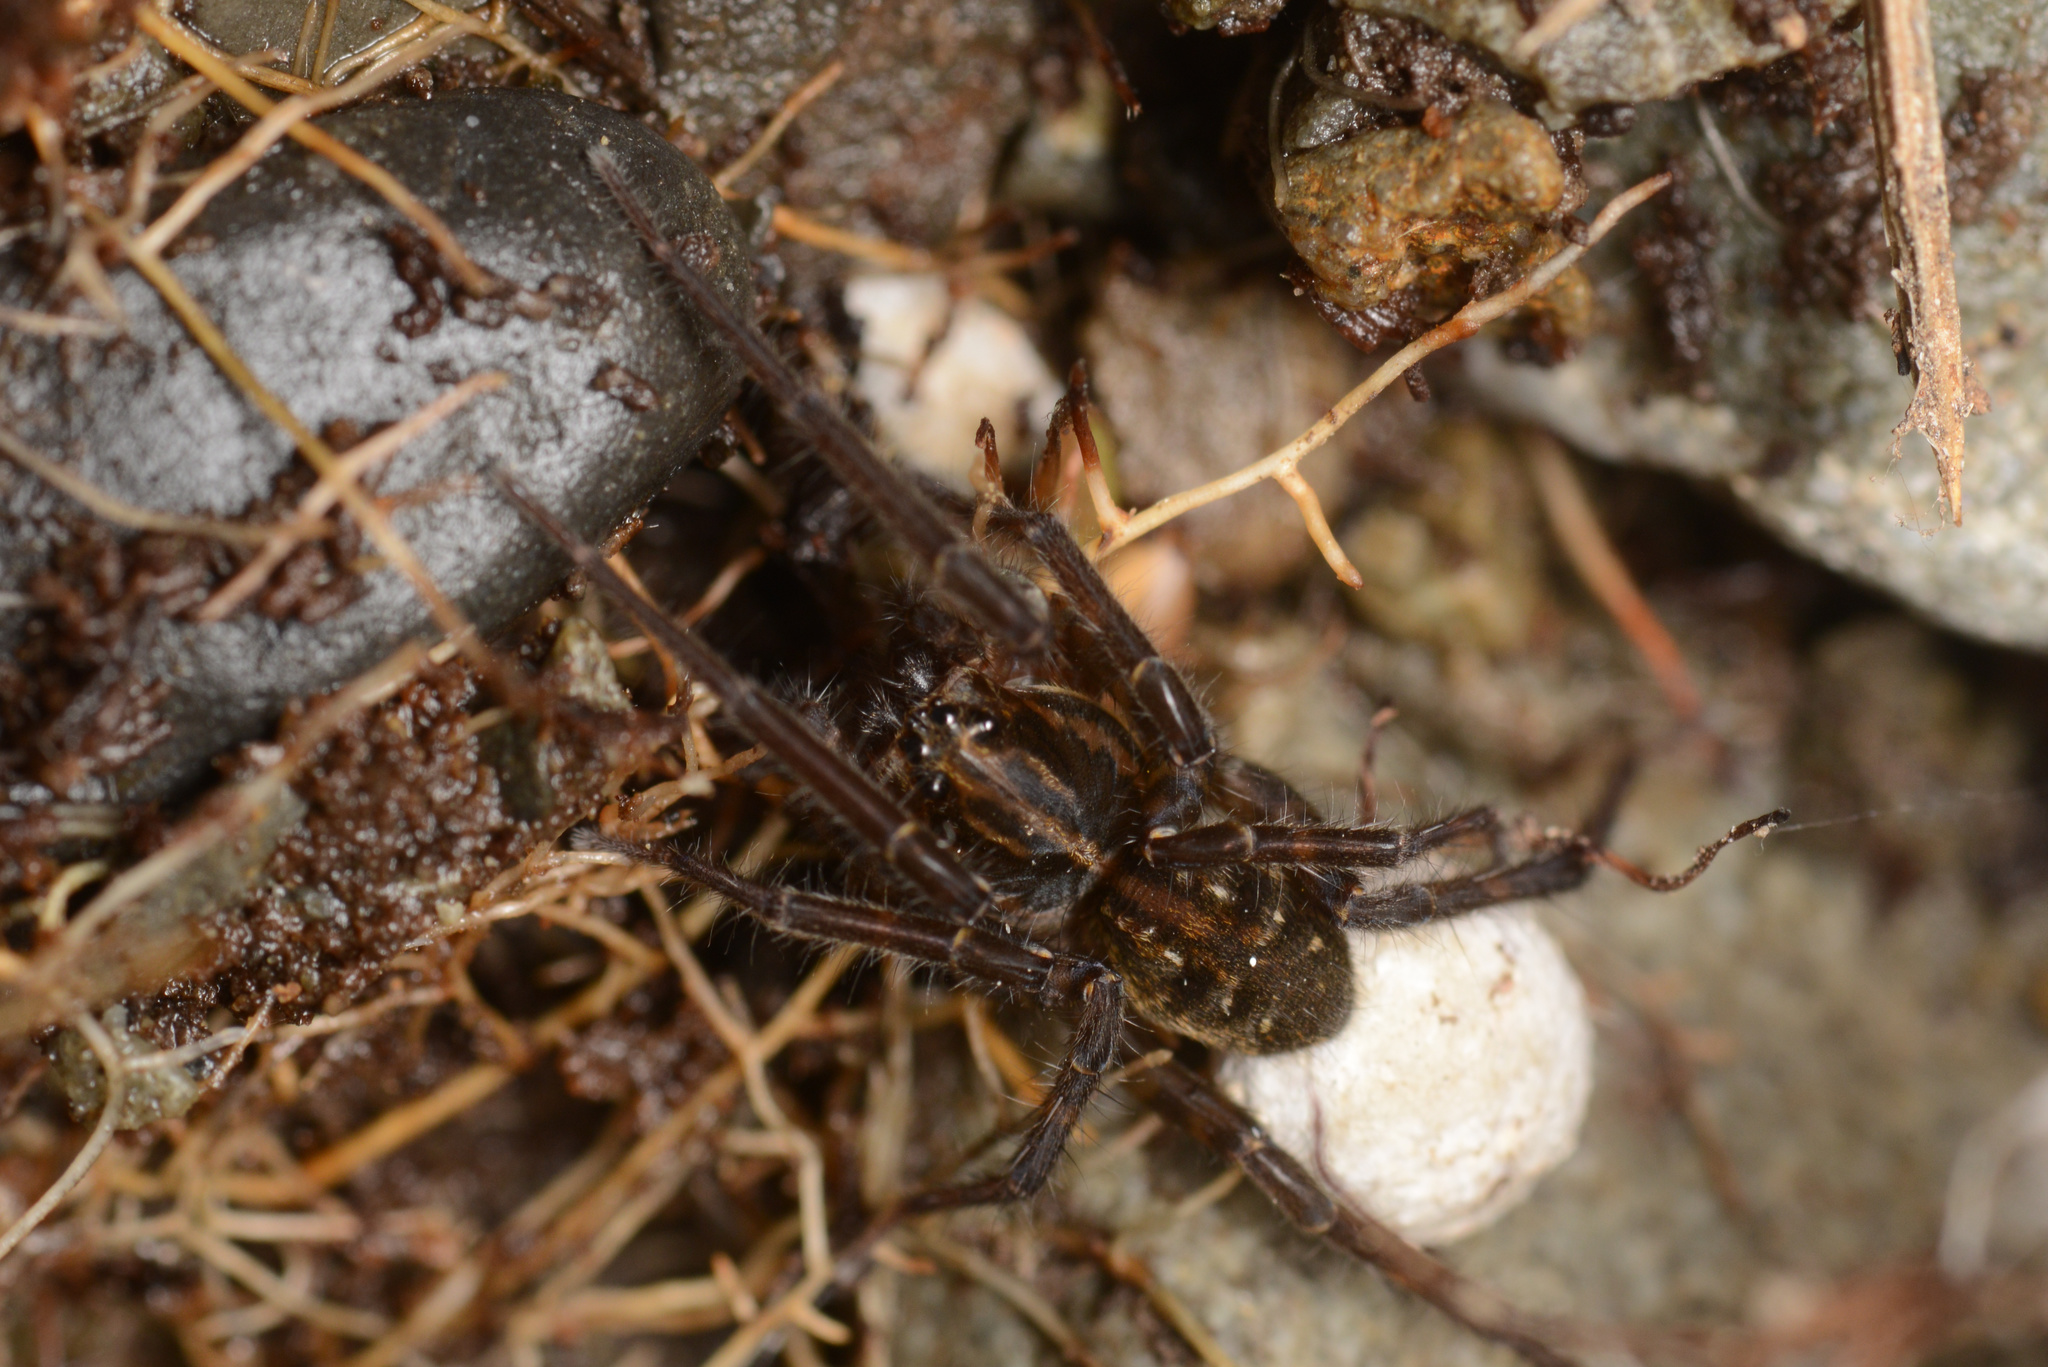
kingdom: Animalia
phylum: Arthropoda
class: Arachnida
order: Araneae
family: Lycosidae
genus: Allotrochosina
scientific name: Allotrochosina schauinslandi
